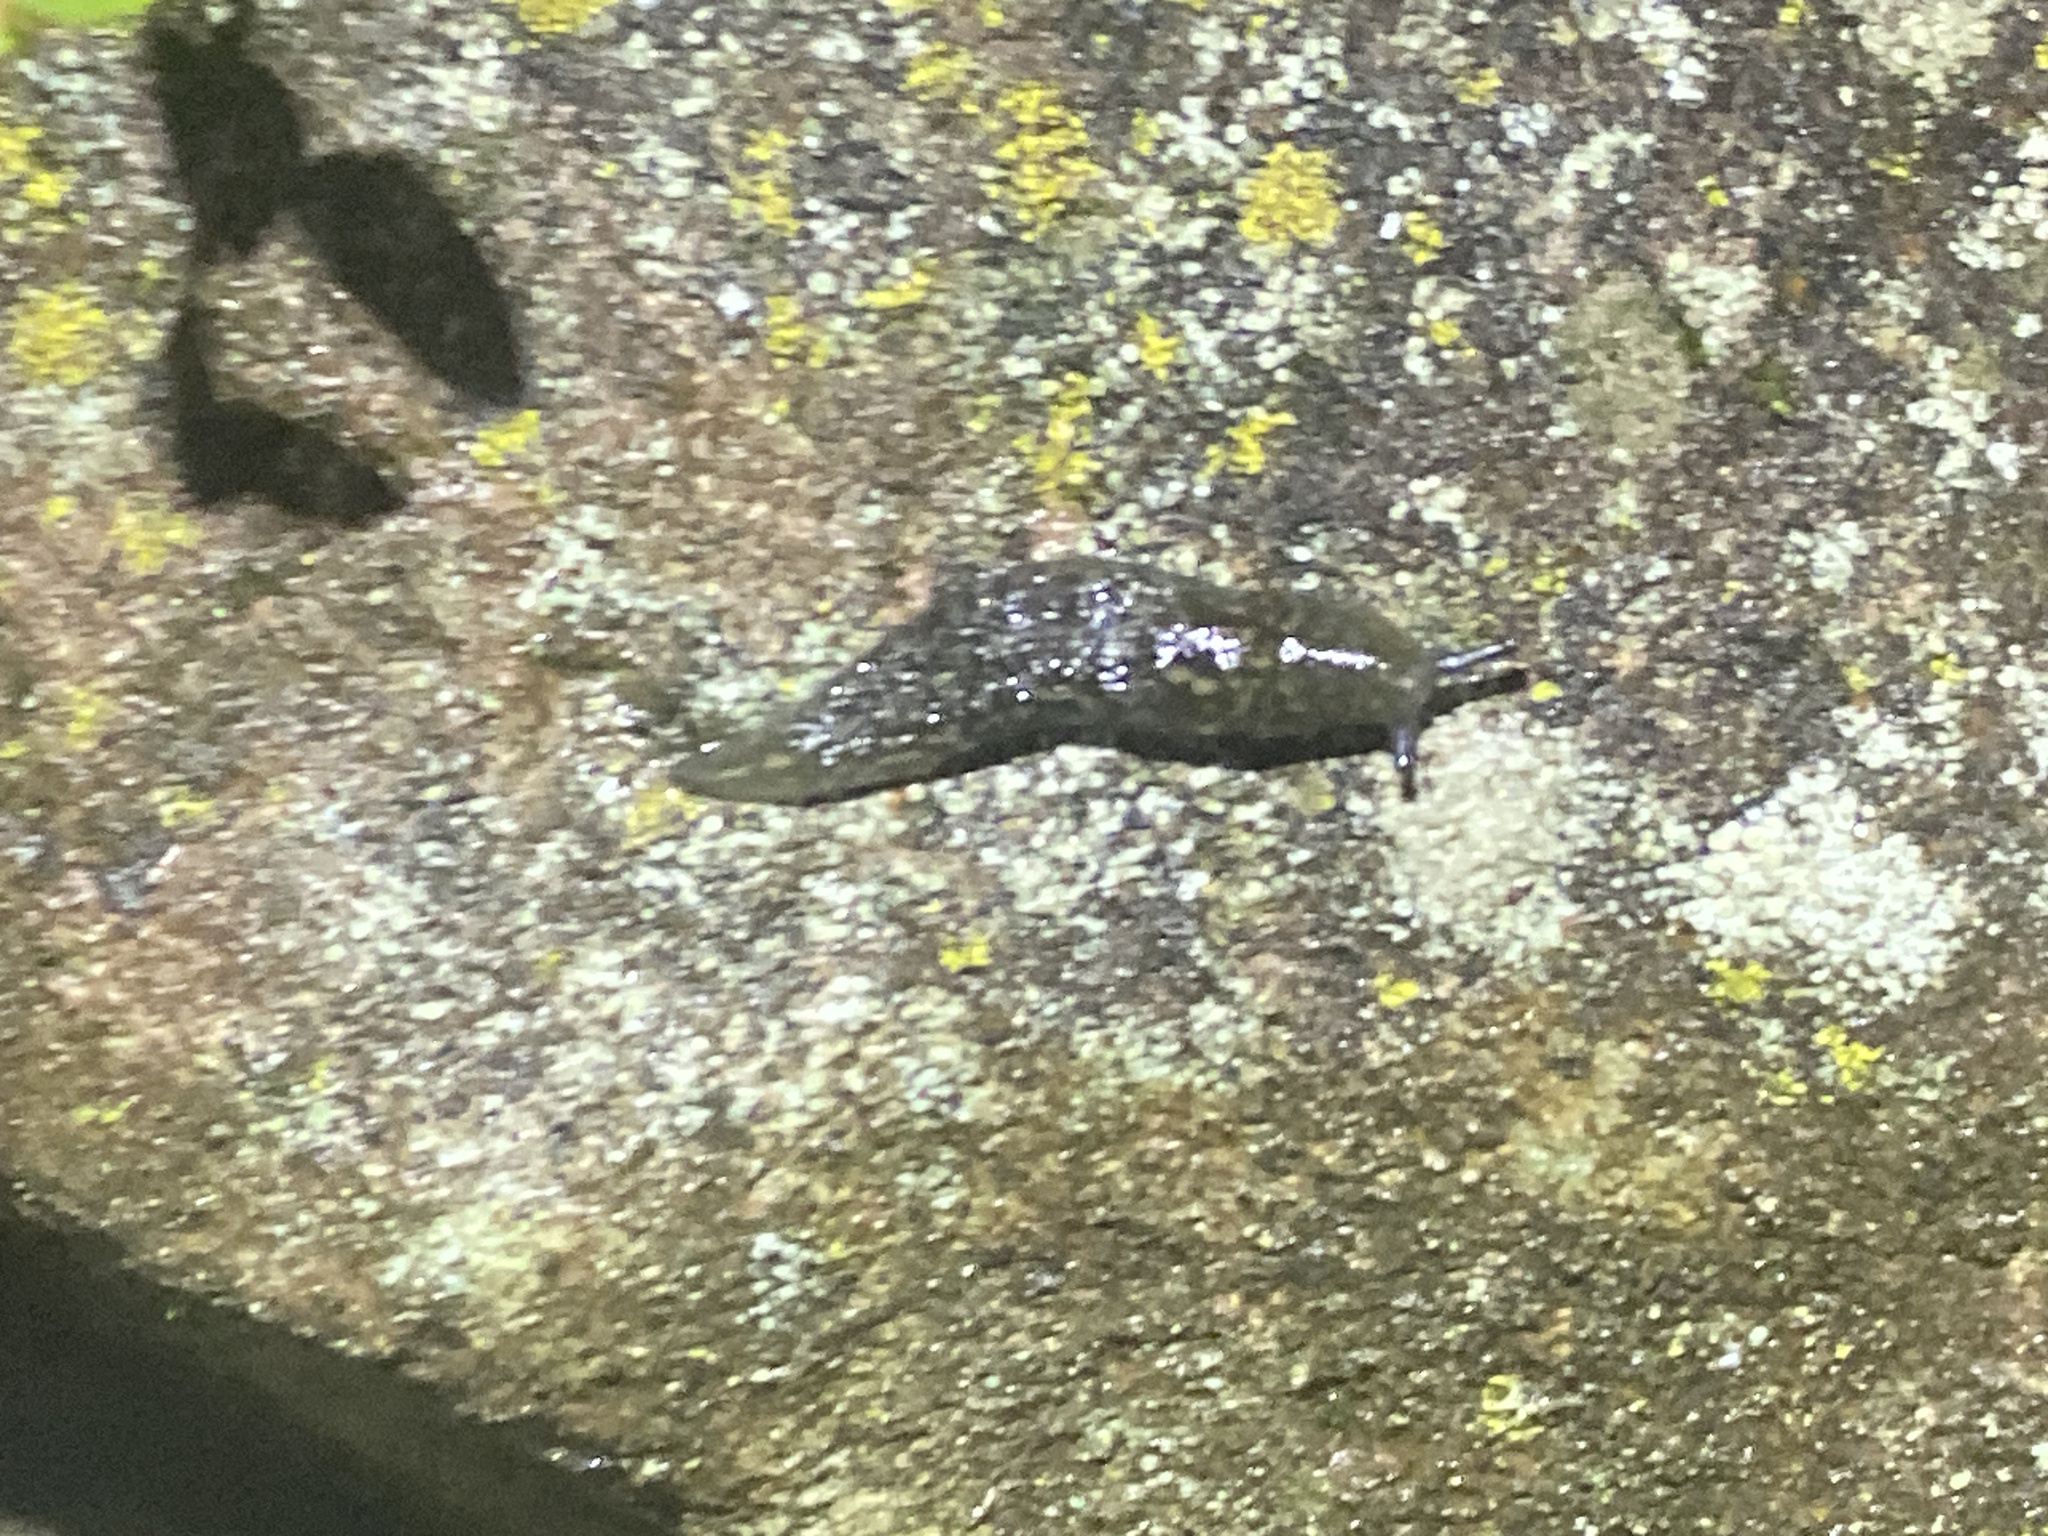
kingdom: Animalia
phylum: Mollusca
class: Gastropoda
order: Stylommatophora
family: Limacidae
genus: Limacus
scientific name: Limacus flavus
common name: Yellow gardenslug
